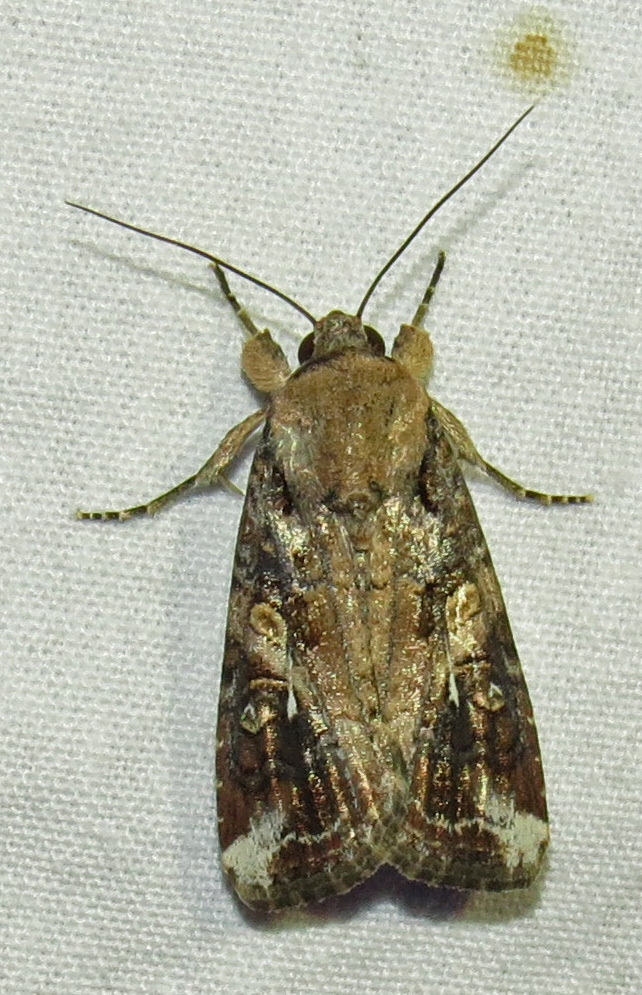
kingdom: Animalia
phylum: Arthropoda
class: Insecta
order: Lepidoptera
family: Noctuidae
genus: Spodoptera
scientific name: Spodoptera frugiperda
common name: Fall armyworm
